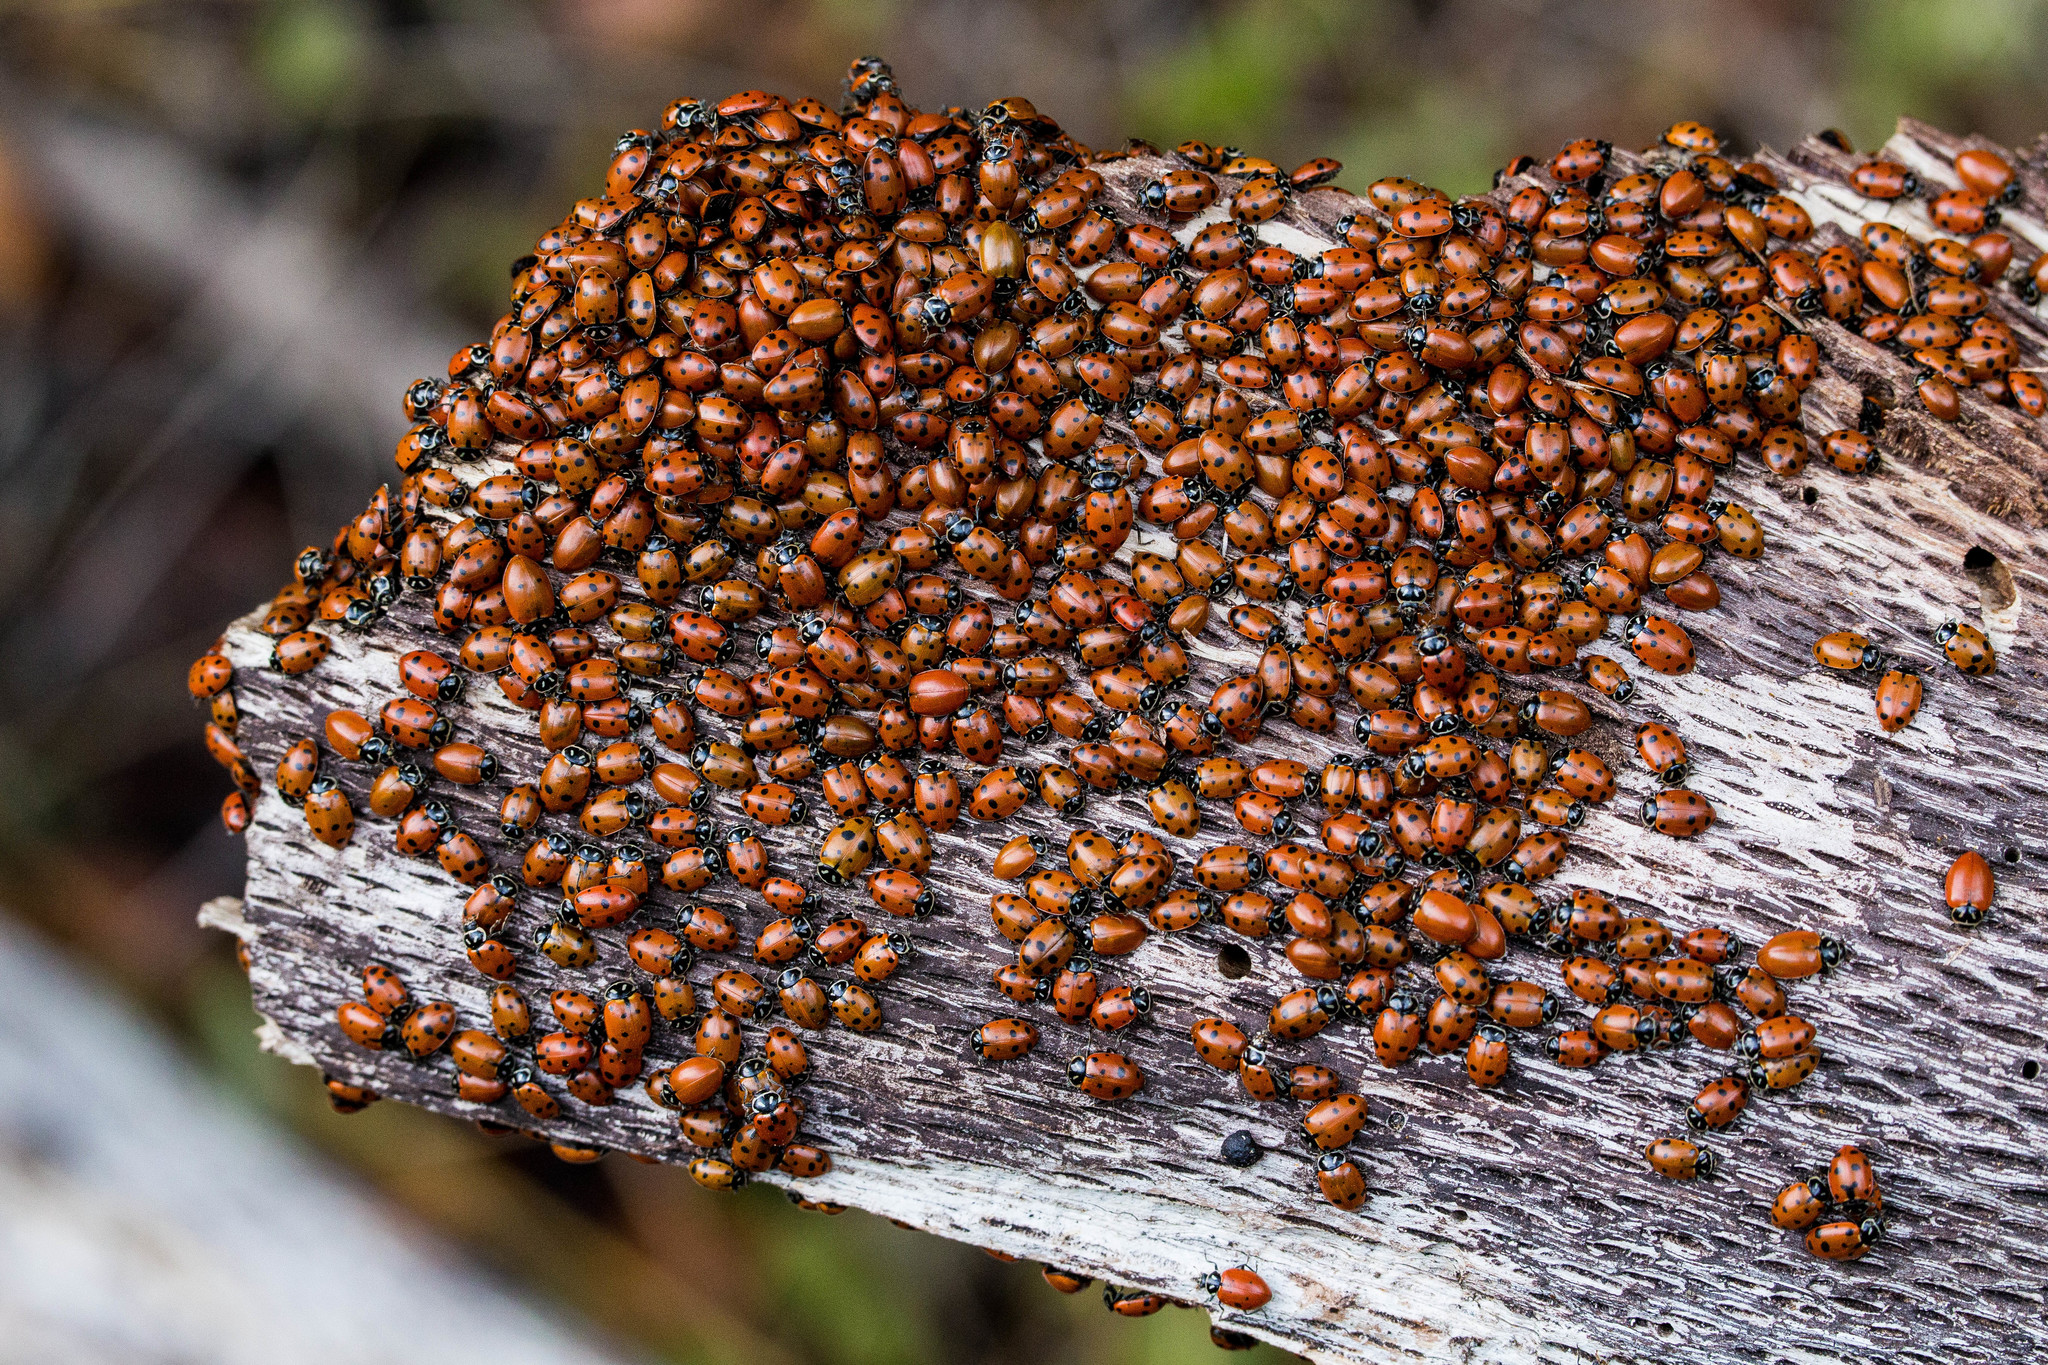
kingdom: Animalia
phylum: Arthropoda
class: Insecta
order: Coleoptera
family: Coccinellidae
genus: Hippodamia
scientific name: Hippodamia convergens
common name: Convergent lady beetle
